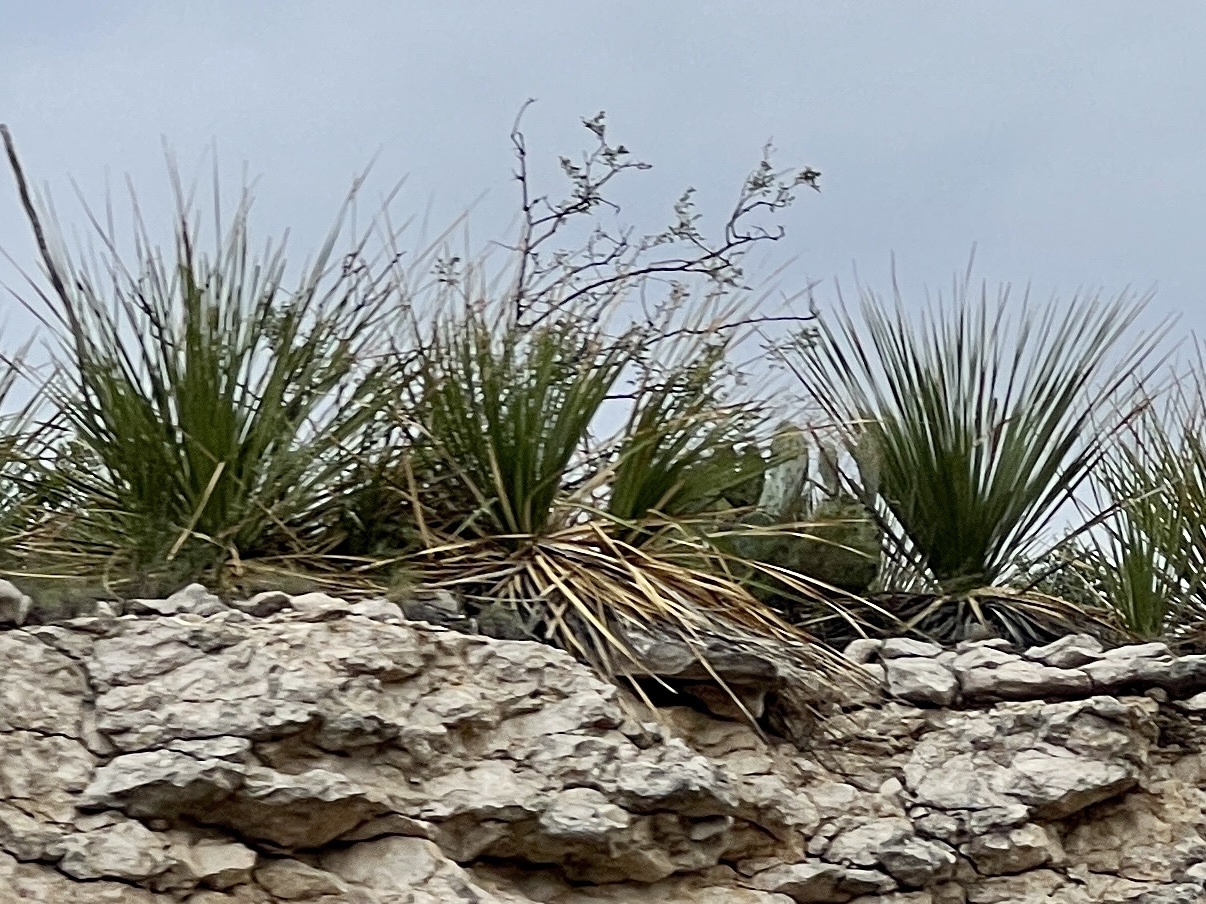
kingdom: Plantae
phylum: Tracheophyta
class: Liliopsida
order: Asparagales
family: Asparagaceae
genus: Dasylirion
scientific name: Dasylirion texanum
